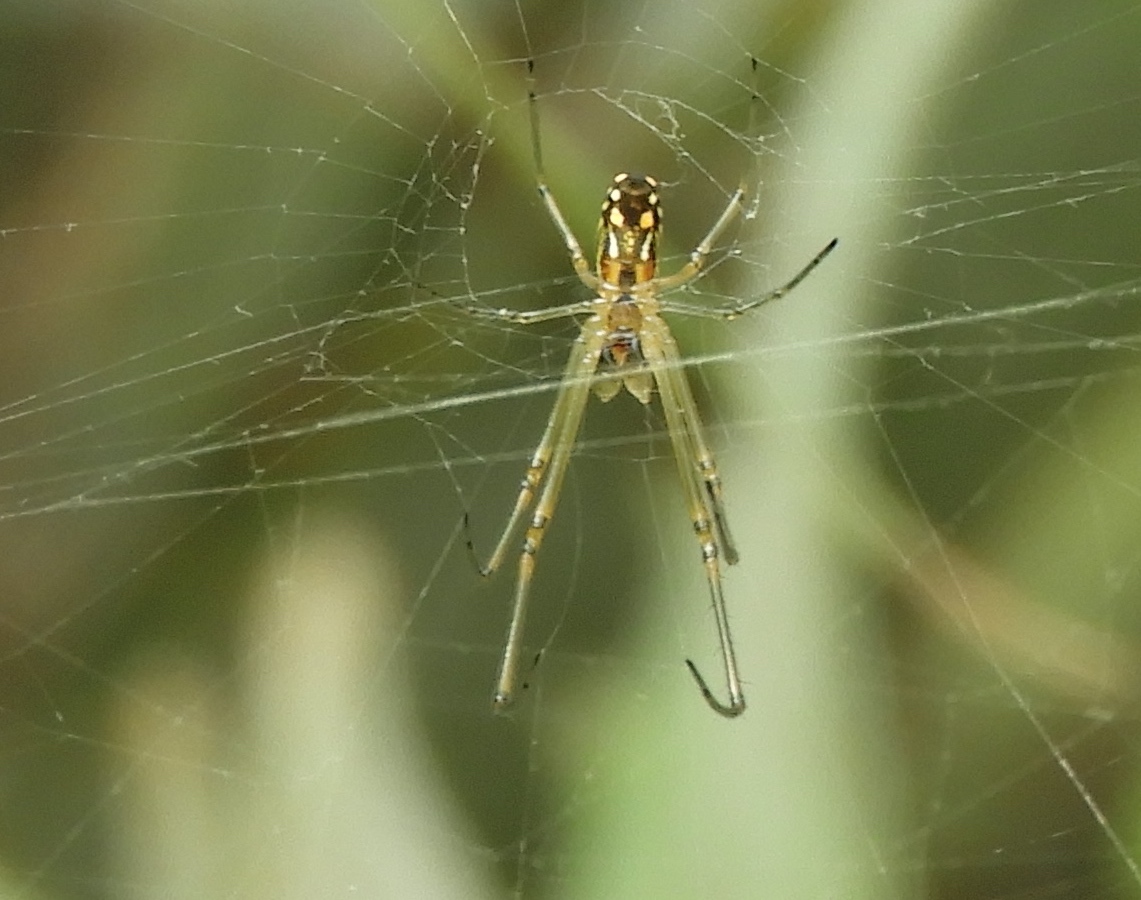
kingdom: Animalia
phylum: Arthropoda
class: Arachnida
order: Araneae
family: Tetragnathidae
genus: Leucauge
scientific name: Leucauge
